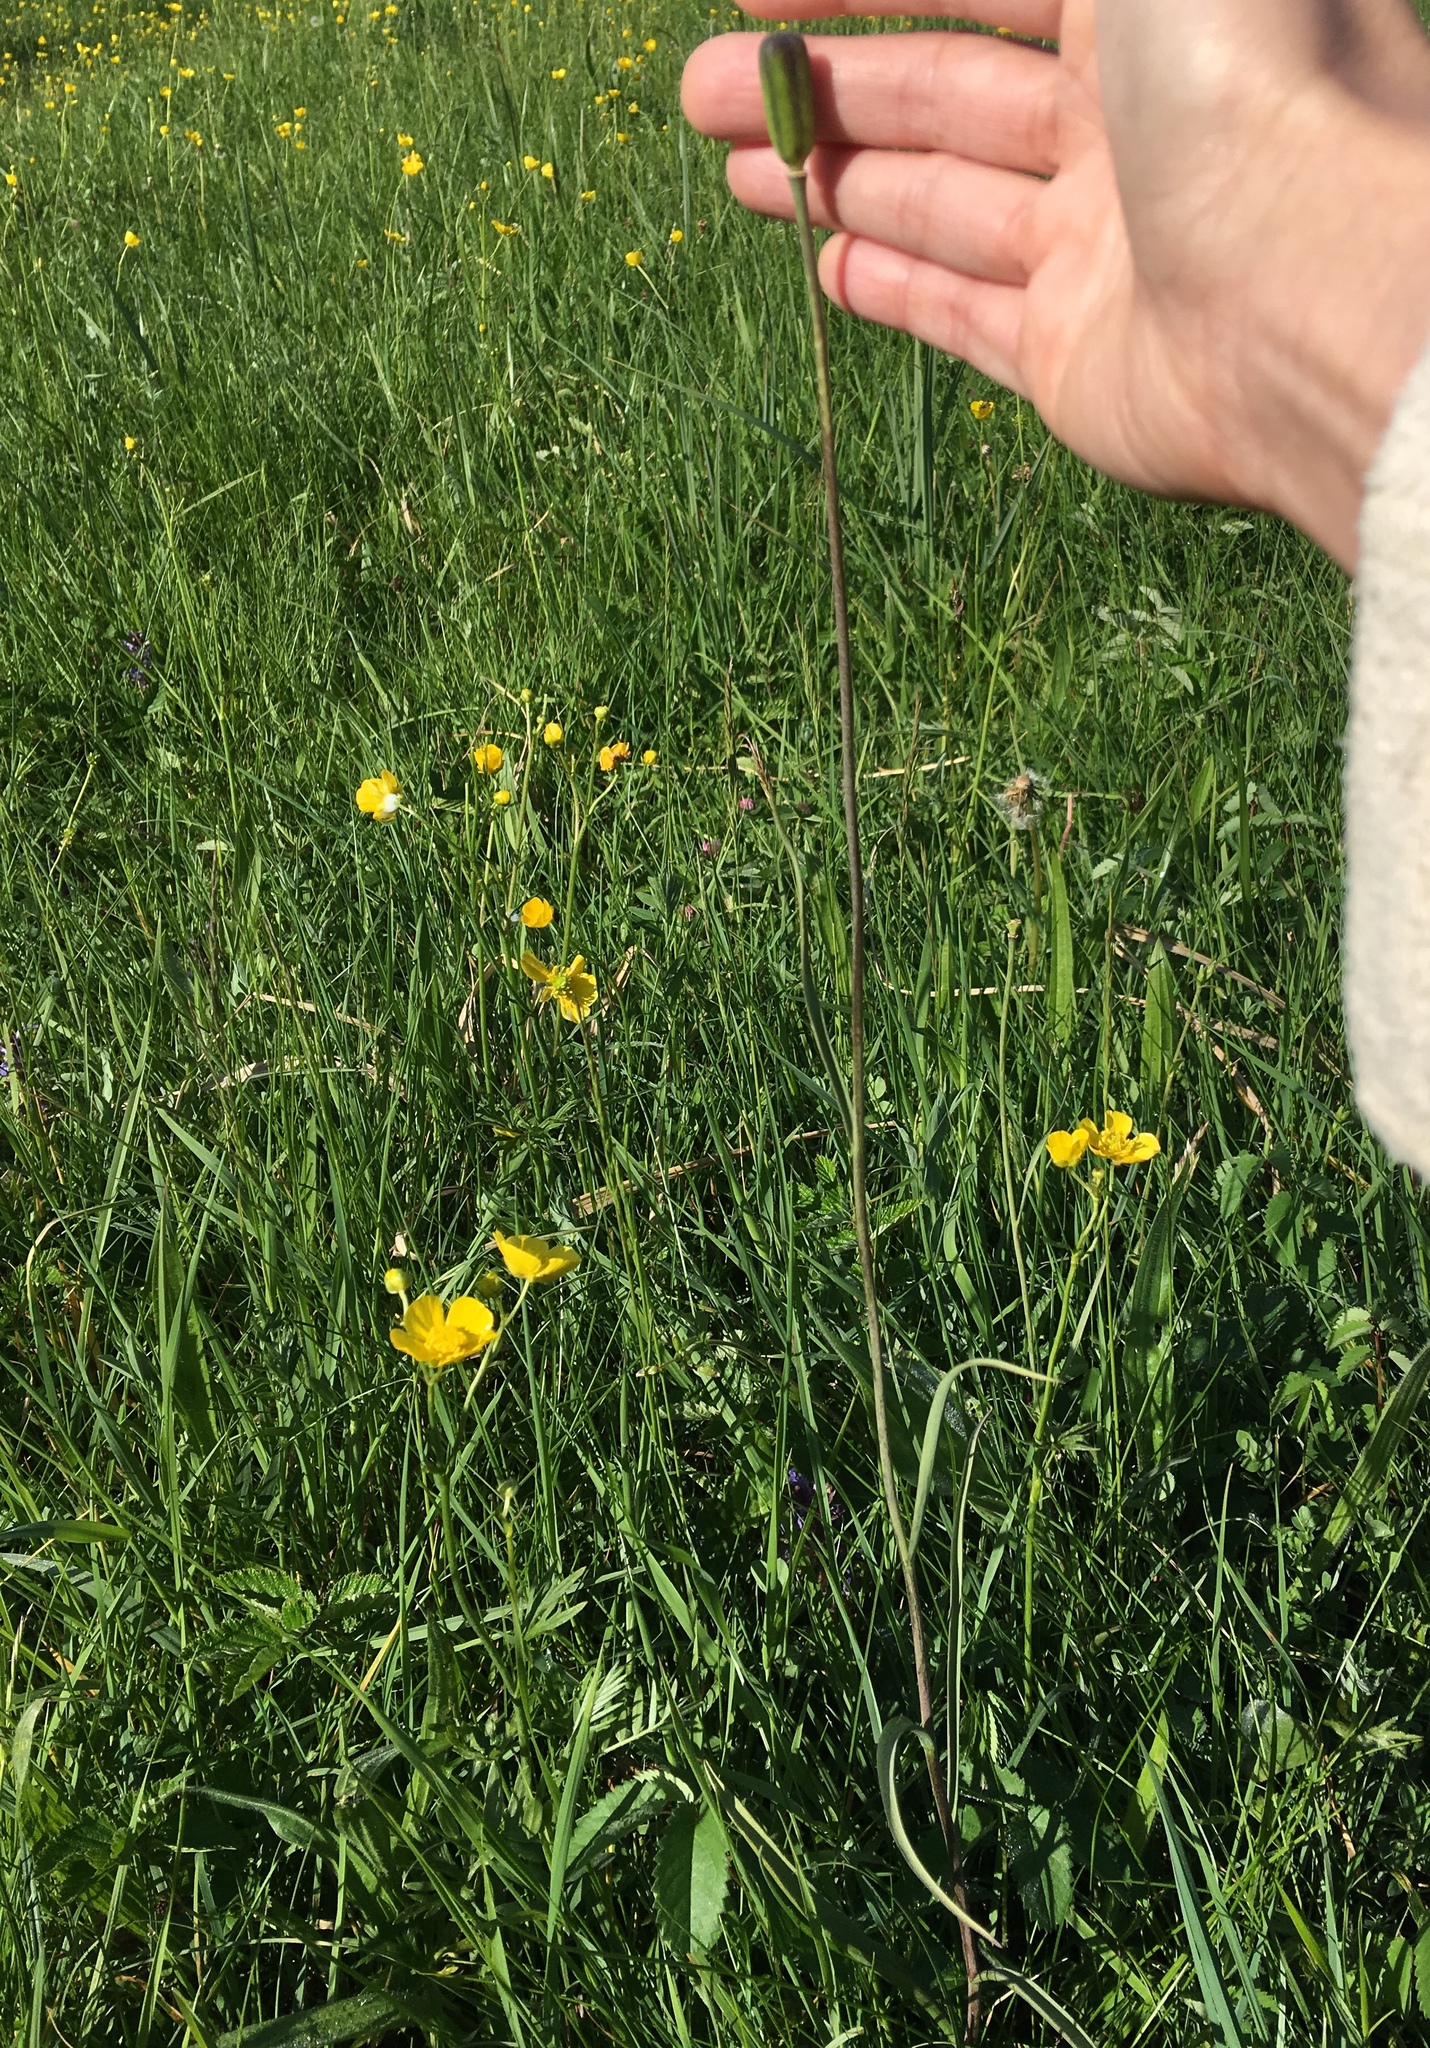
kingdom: Plantae
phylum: Tracheophyta
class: Liliopsida
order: Liliales
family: Liliaceae
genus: Fritillaria
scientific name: Fritillaria meleagris
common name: Fritillary
